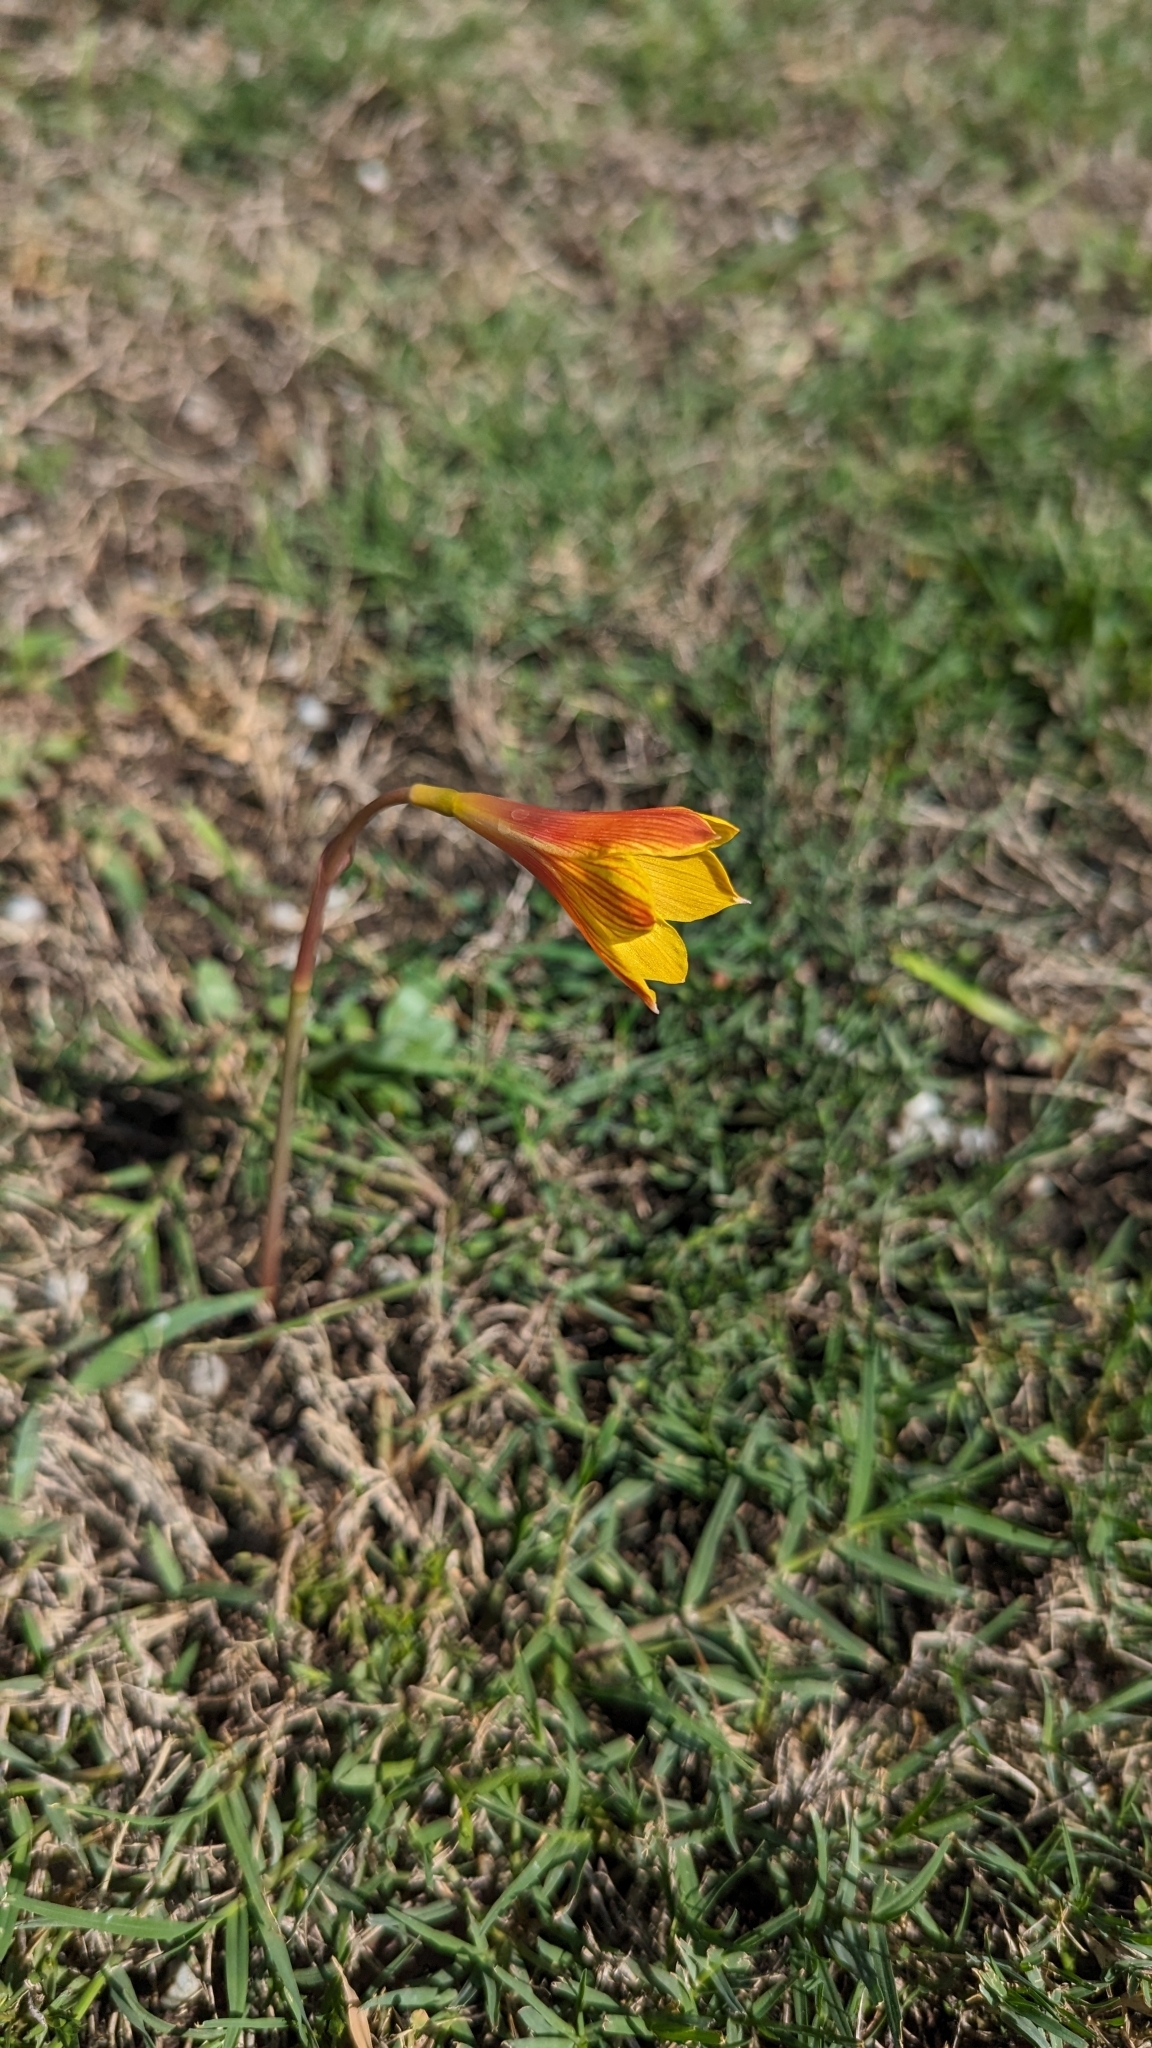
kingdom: Plantae
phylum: Tracheophyta
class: Liliopsida
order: Asparagales
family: Amaryllidaceae
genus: Zephyranthes
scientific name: Zephyranthes tubispatha
